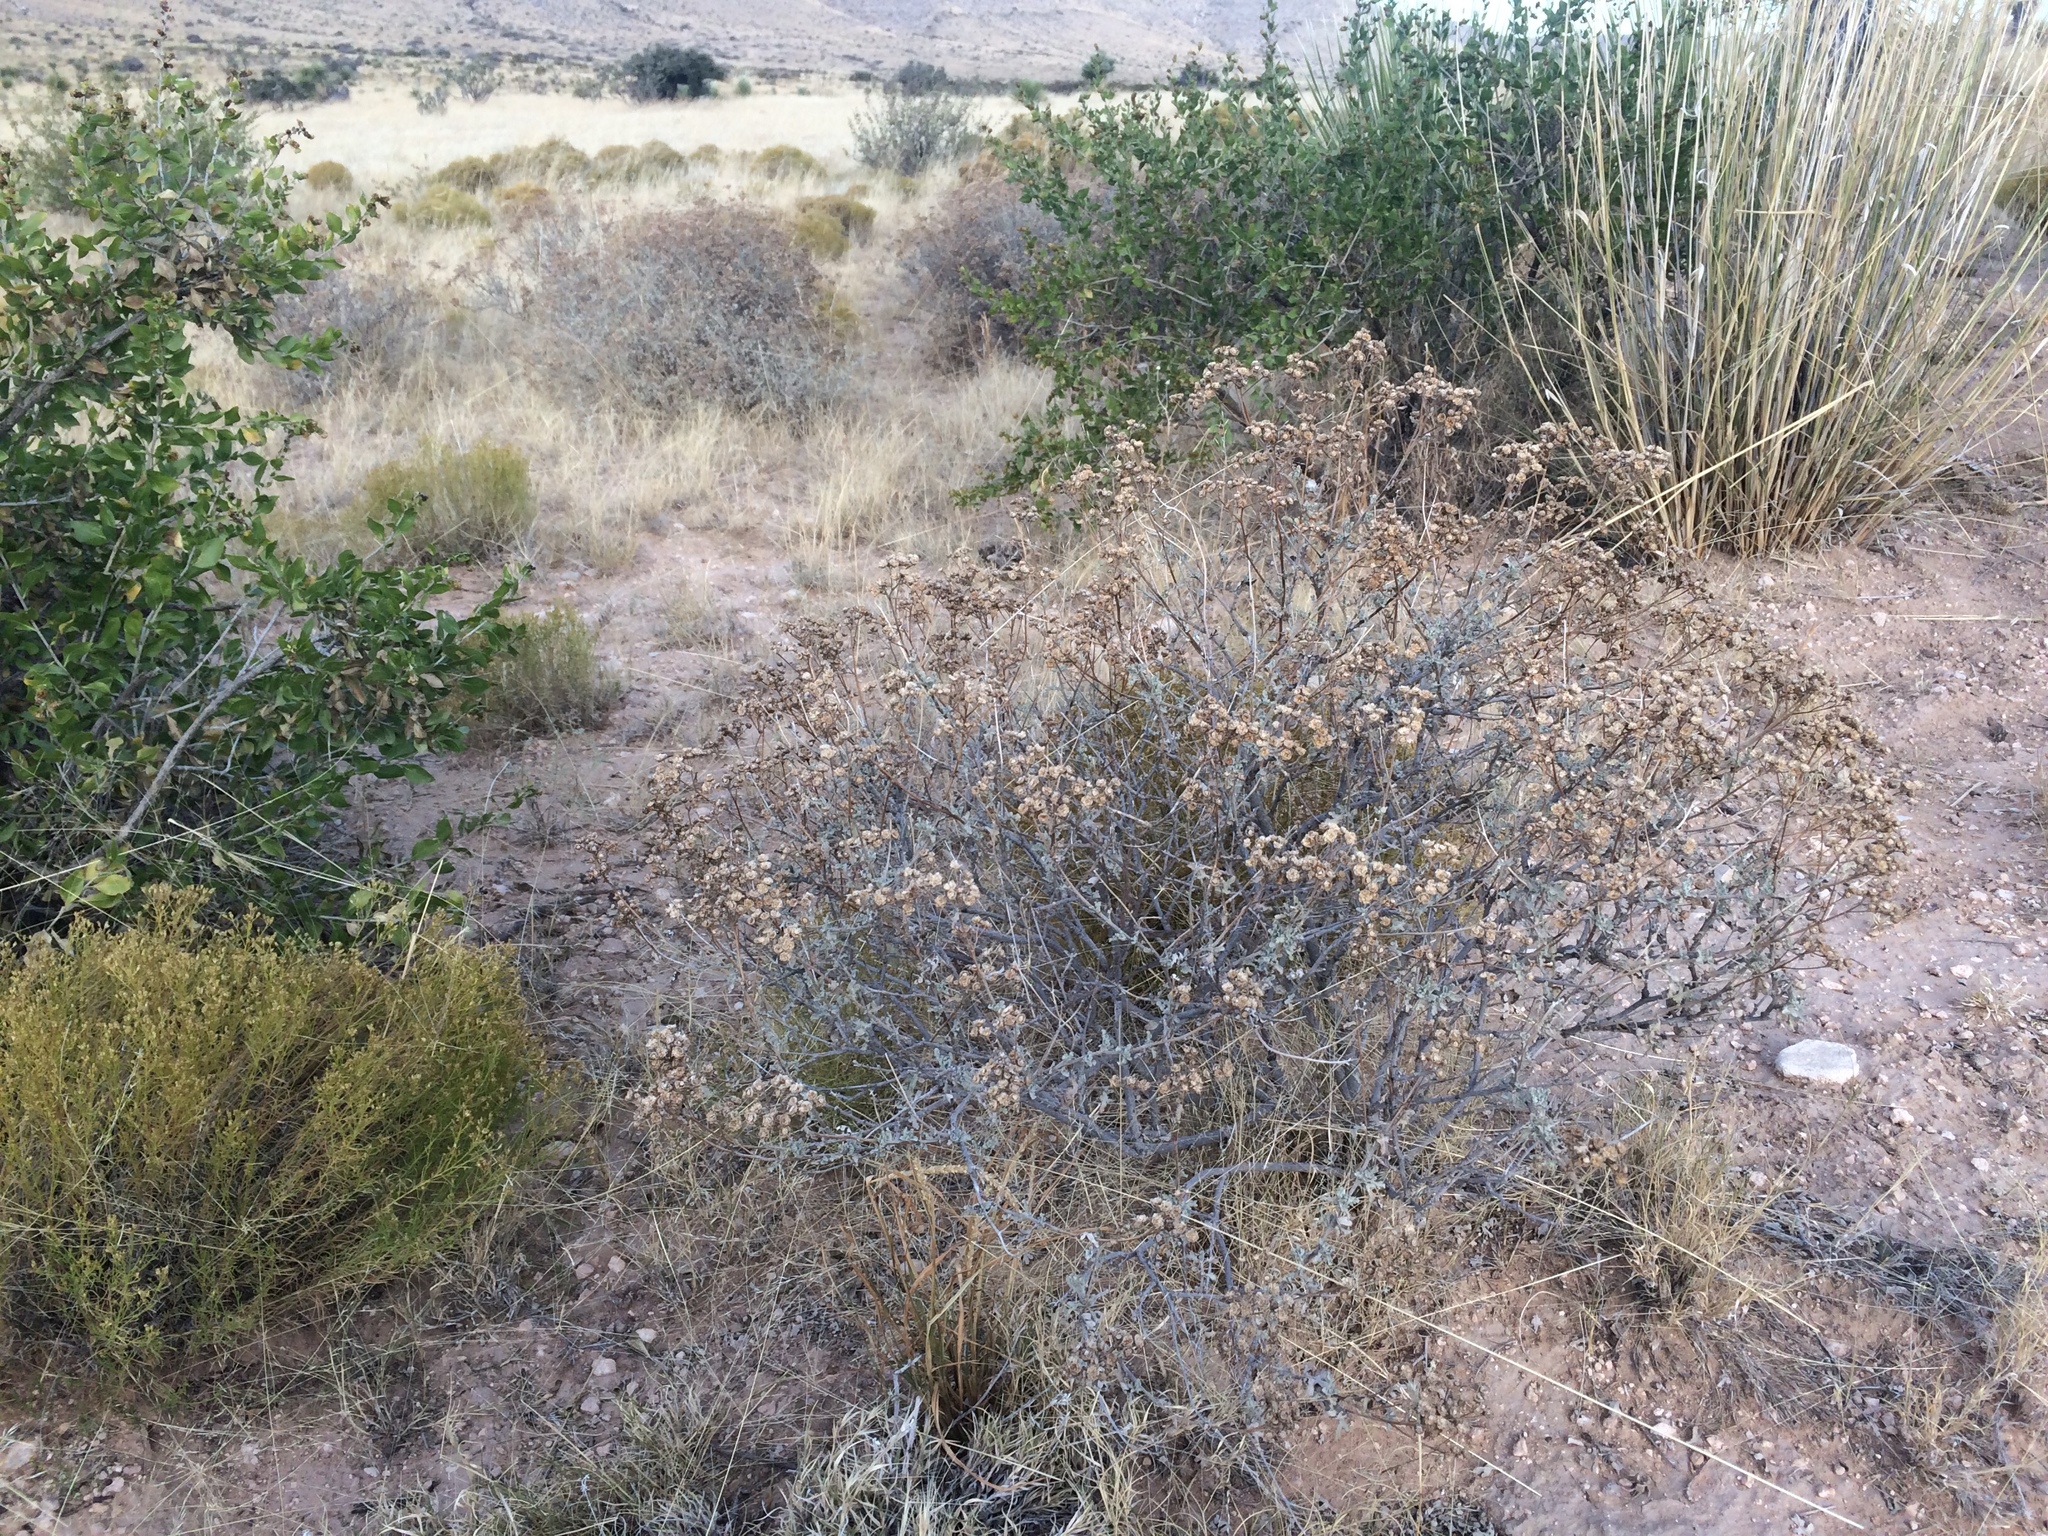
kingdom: Plantae
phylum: Tracheophyta
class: Magnoliopsida
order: Asterales
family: Asteraceae
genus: Parthenium
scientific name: Parthenium incanum
